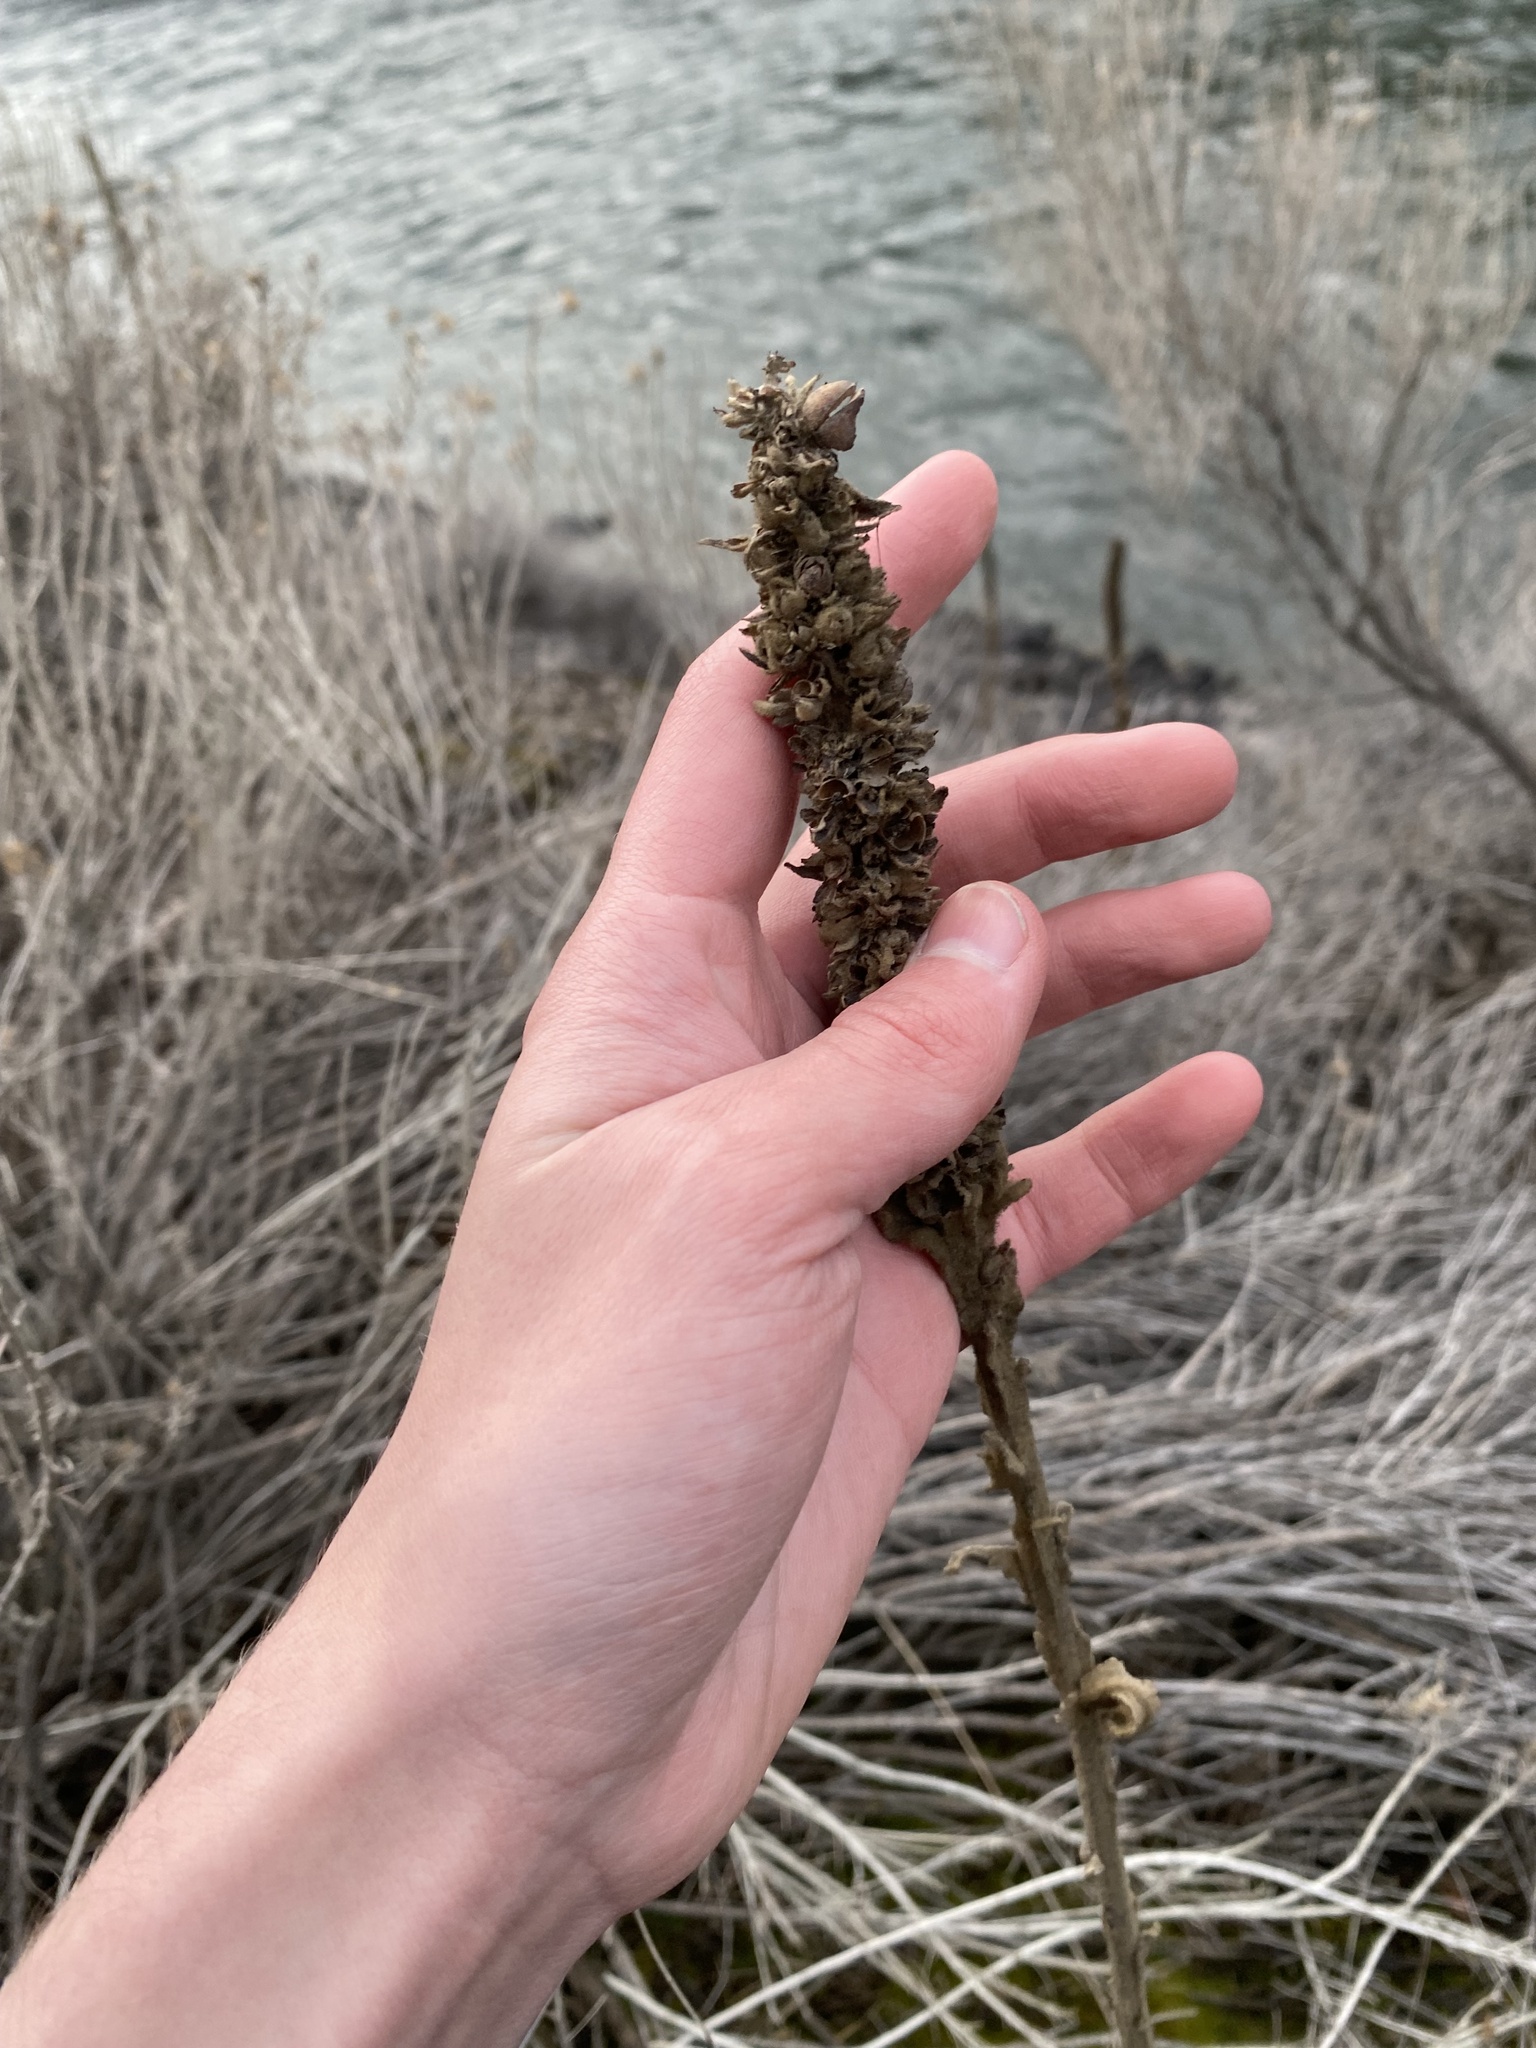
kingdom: Plantae
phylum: Tracheophyta
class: Magnoliopsida
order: Lamiales
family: Scrophulariaceae
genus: Verbascum
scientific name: Verbascum thapsus
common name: Common mullein
